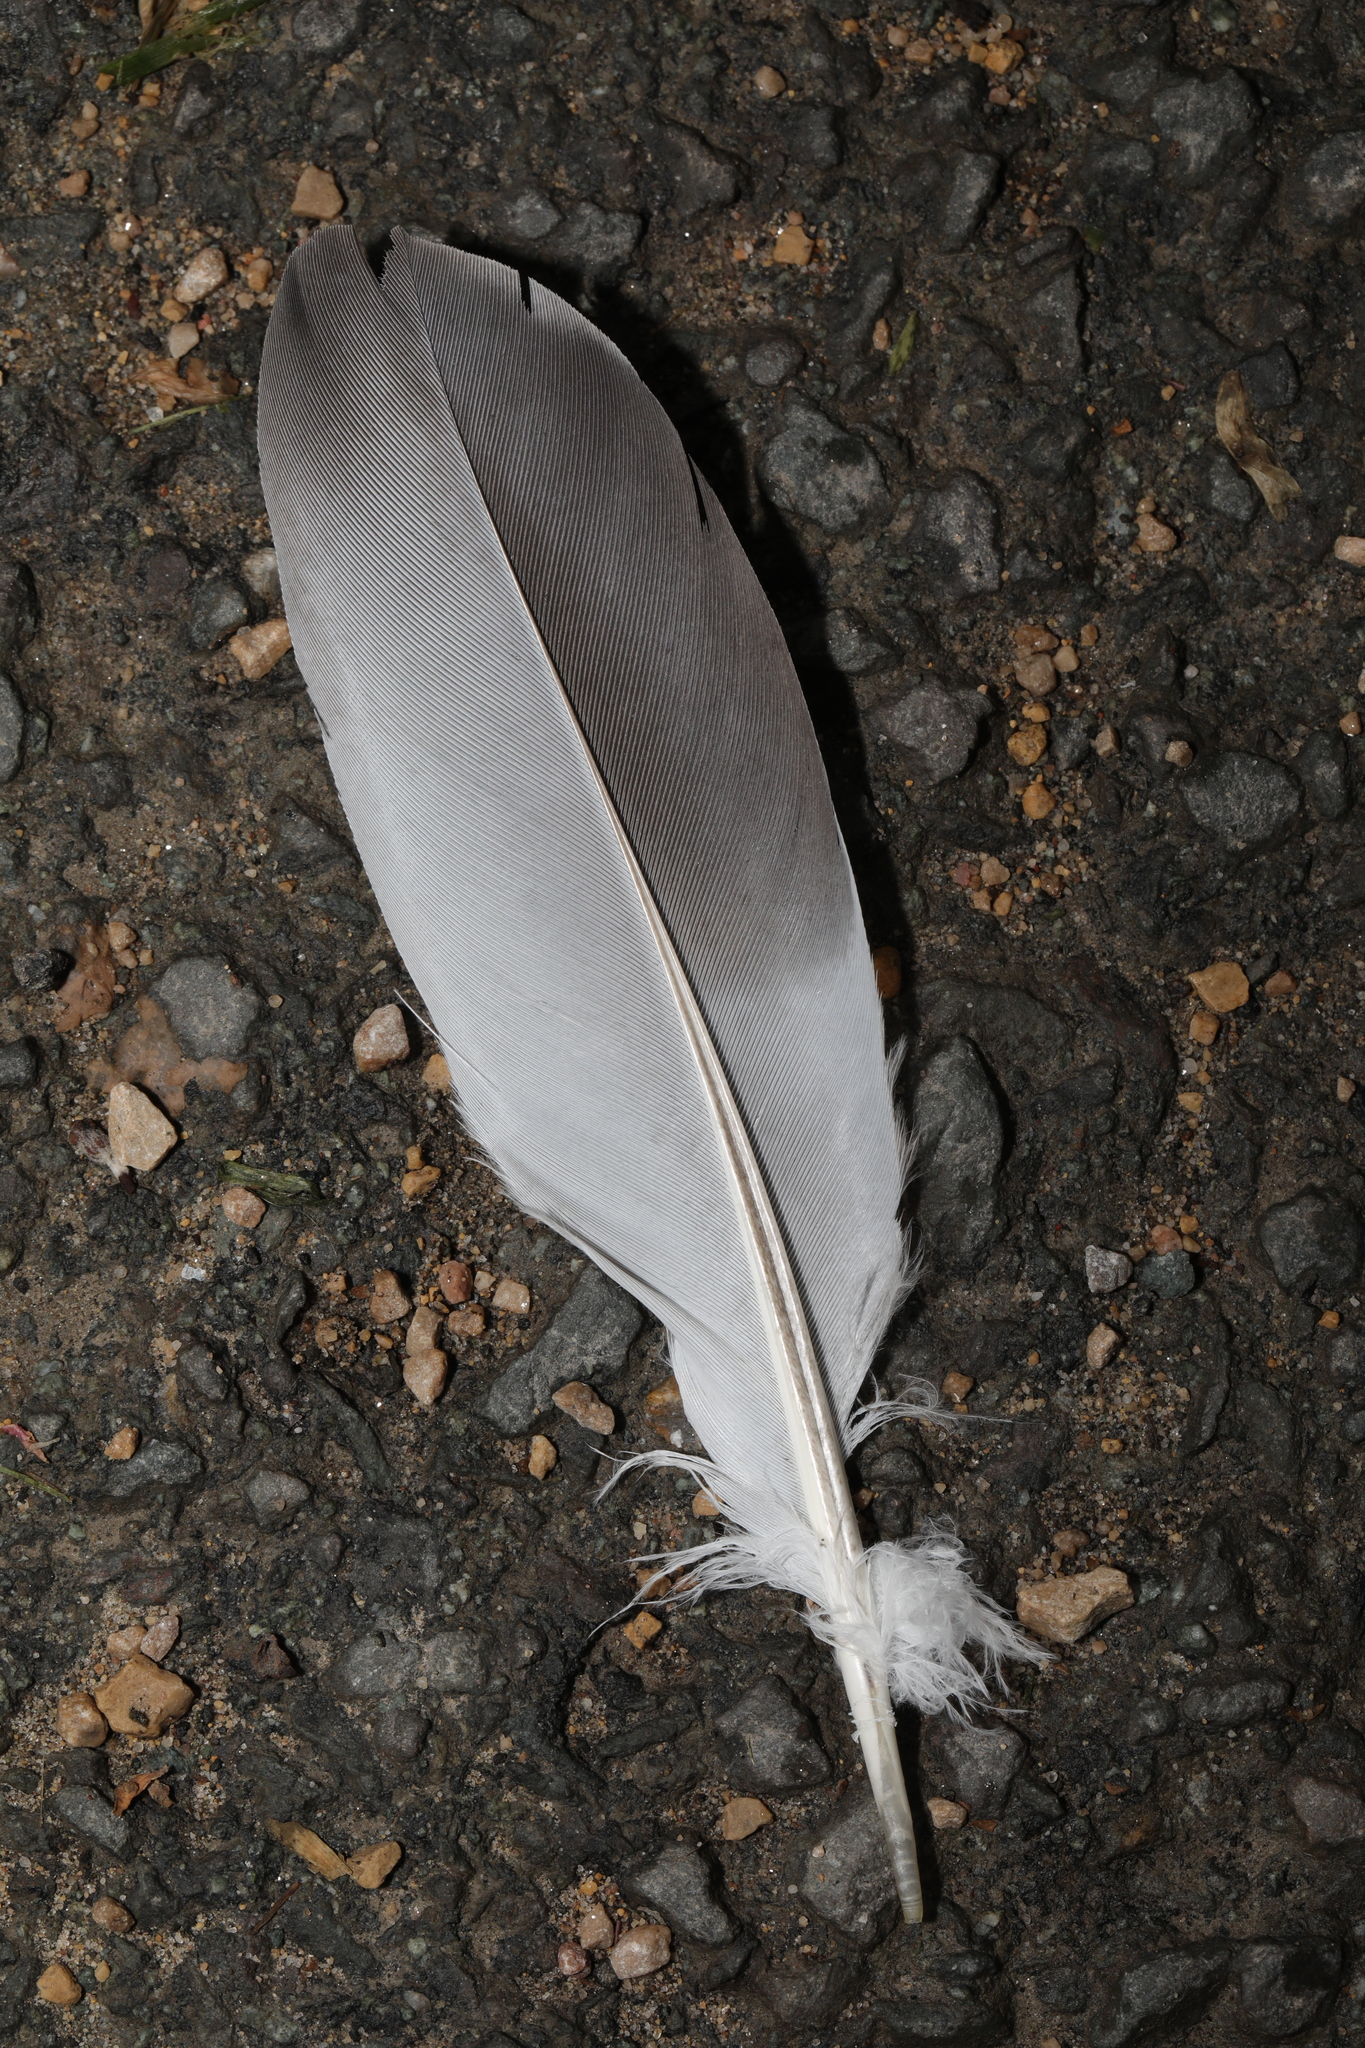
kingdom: Animalia
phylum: Chordata
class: Aves
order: Columbiformes
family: Columbidae
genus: Columba
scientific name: Columba livia
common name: Rock pigeon
